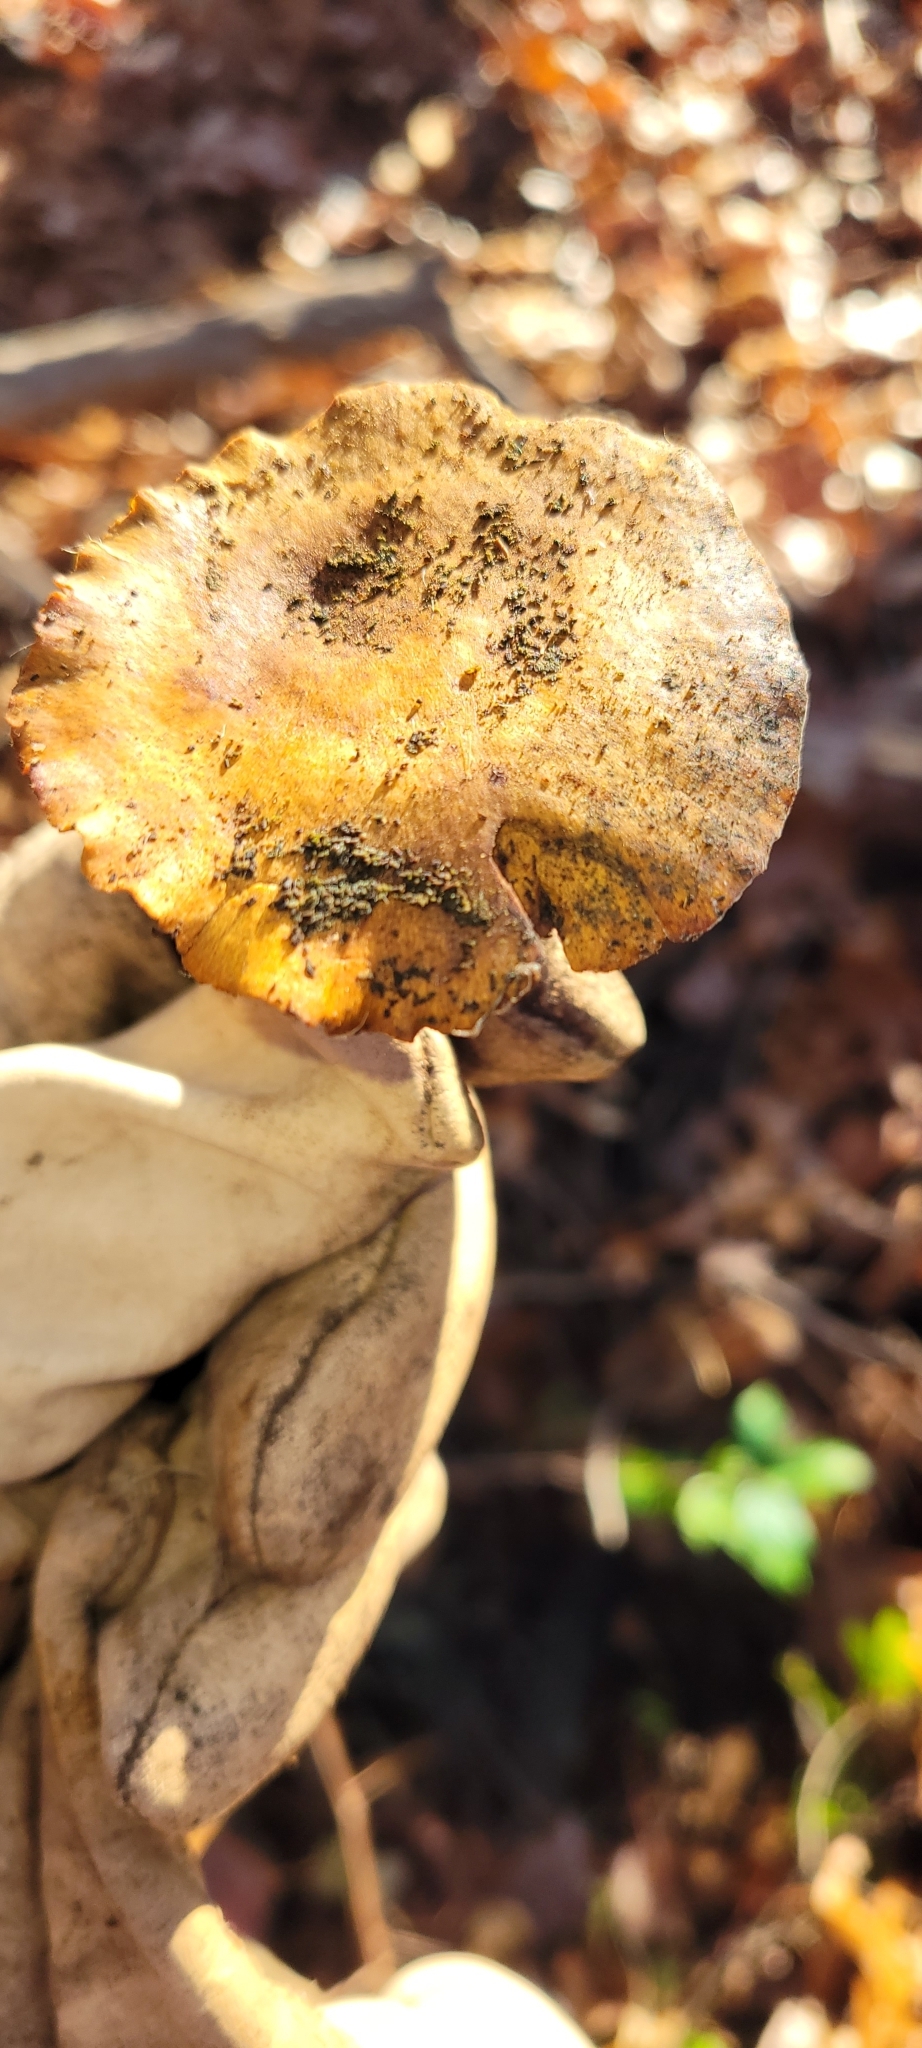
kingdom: Fungi
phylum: Basidiomycota
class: Agaricomycetes
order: Polyporales
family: Polyporaceae
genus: Cerioporus
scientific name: Cerioporus leptocephalus
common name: Blackfoot polypore
